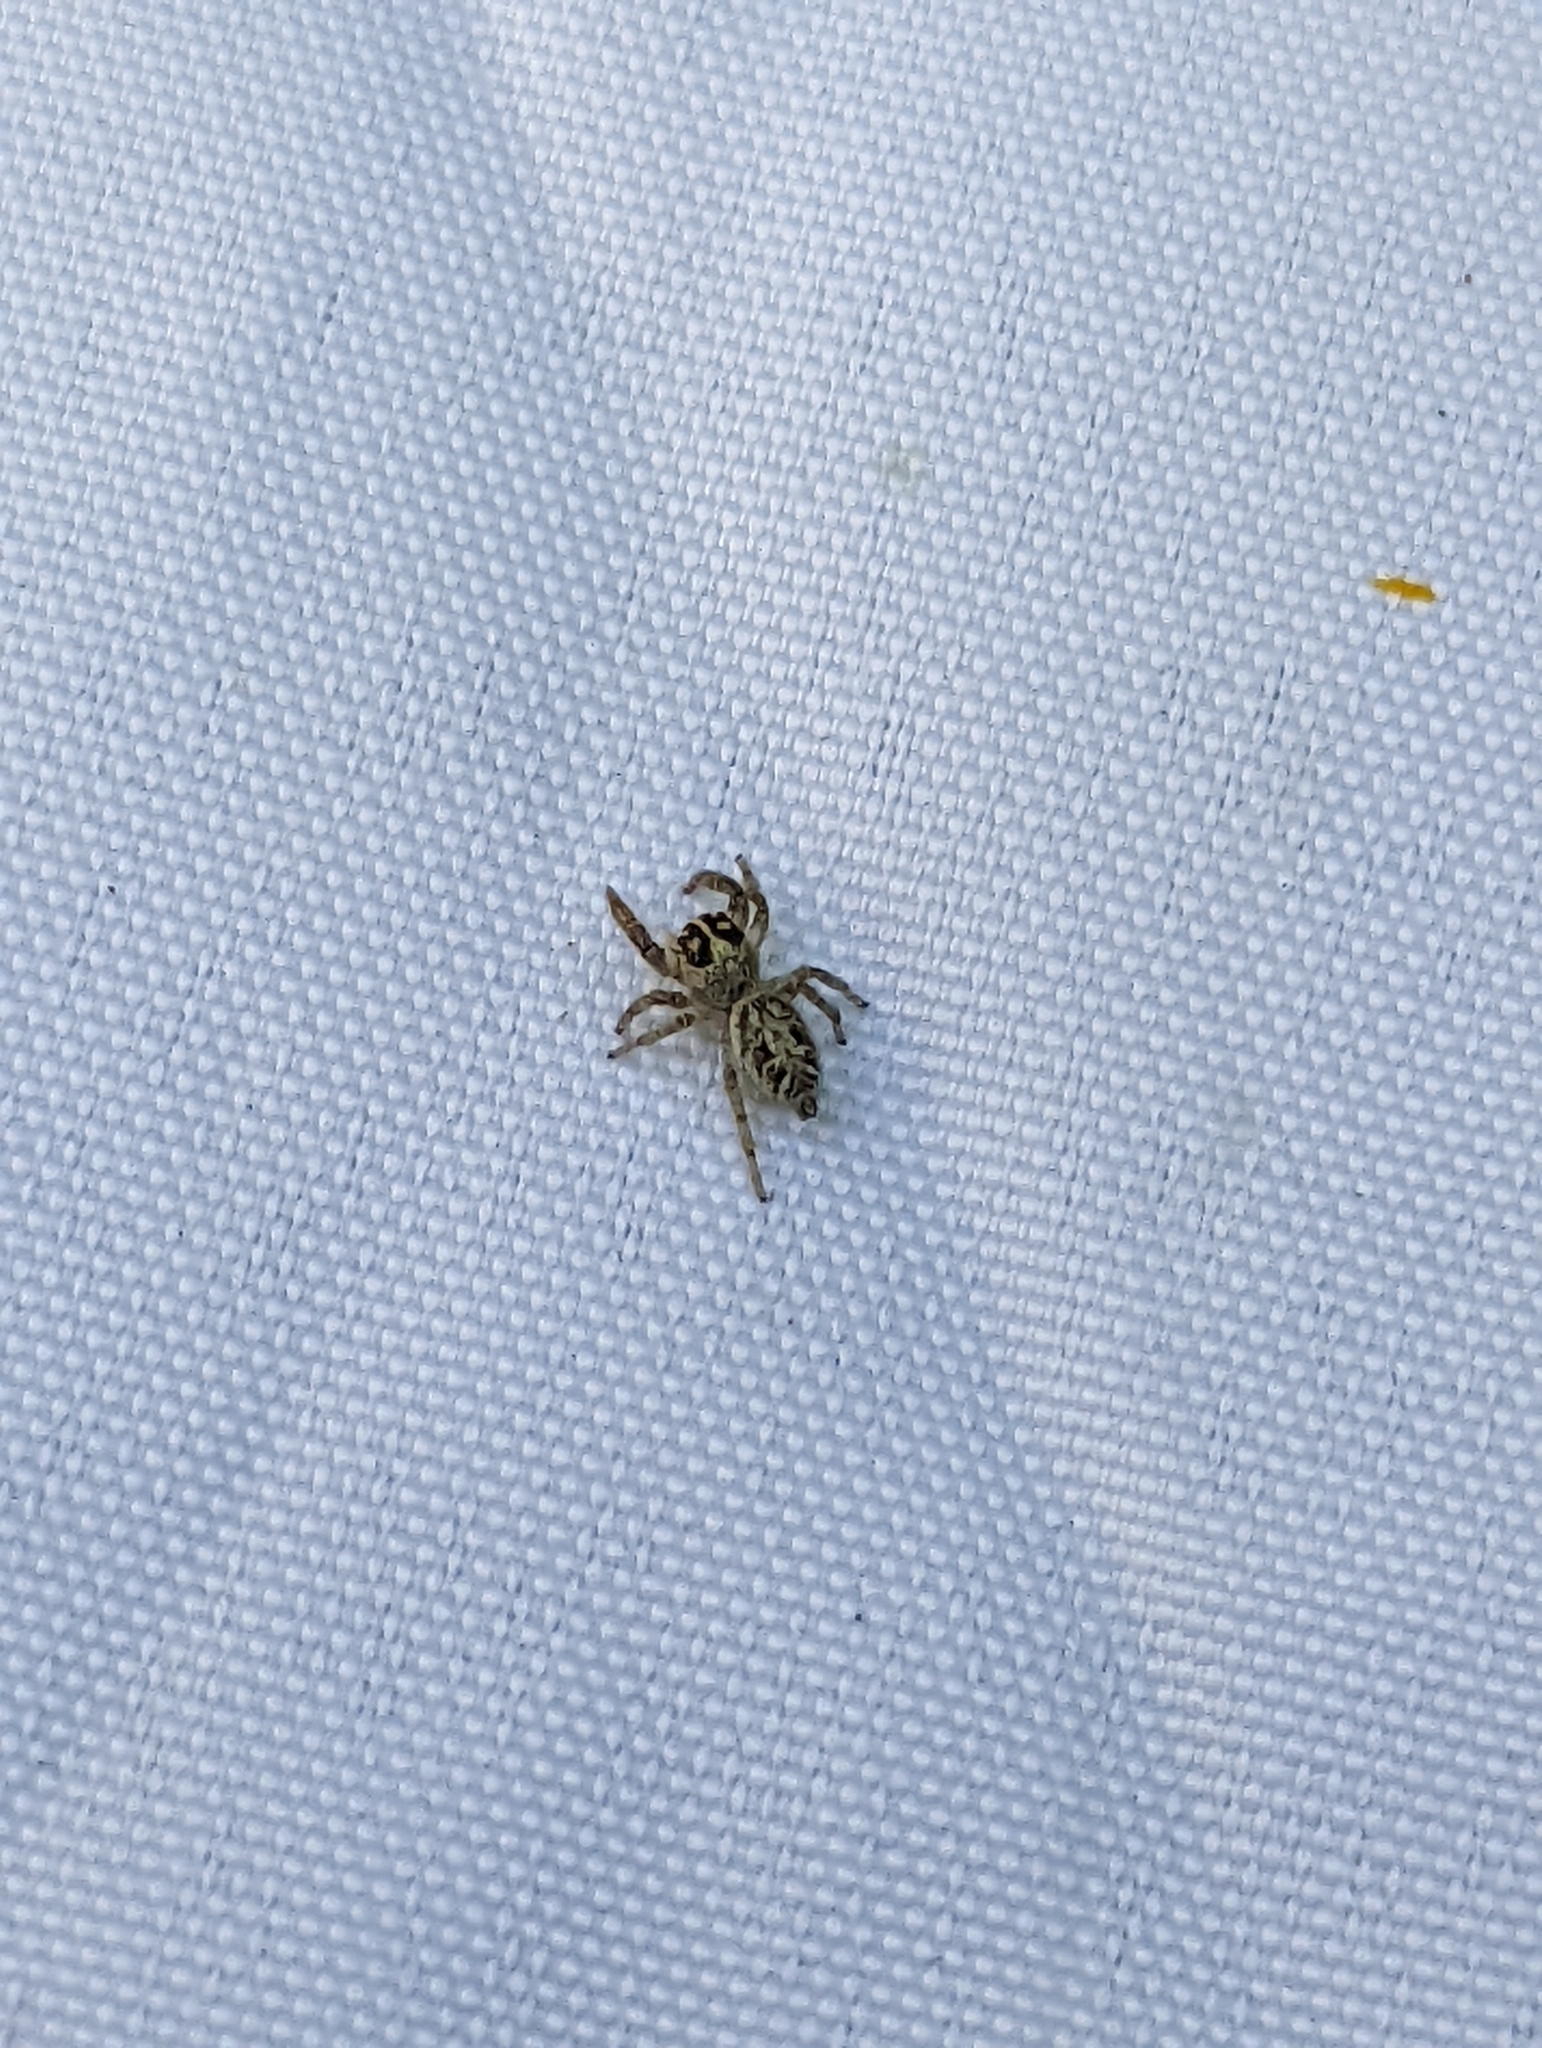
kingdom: Animalia
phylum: Arthropoda
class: Arachnida
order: Araneae
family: Salticidae
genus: Macaroeris
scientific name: Macaroeris nidicolens
